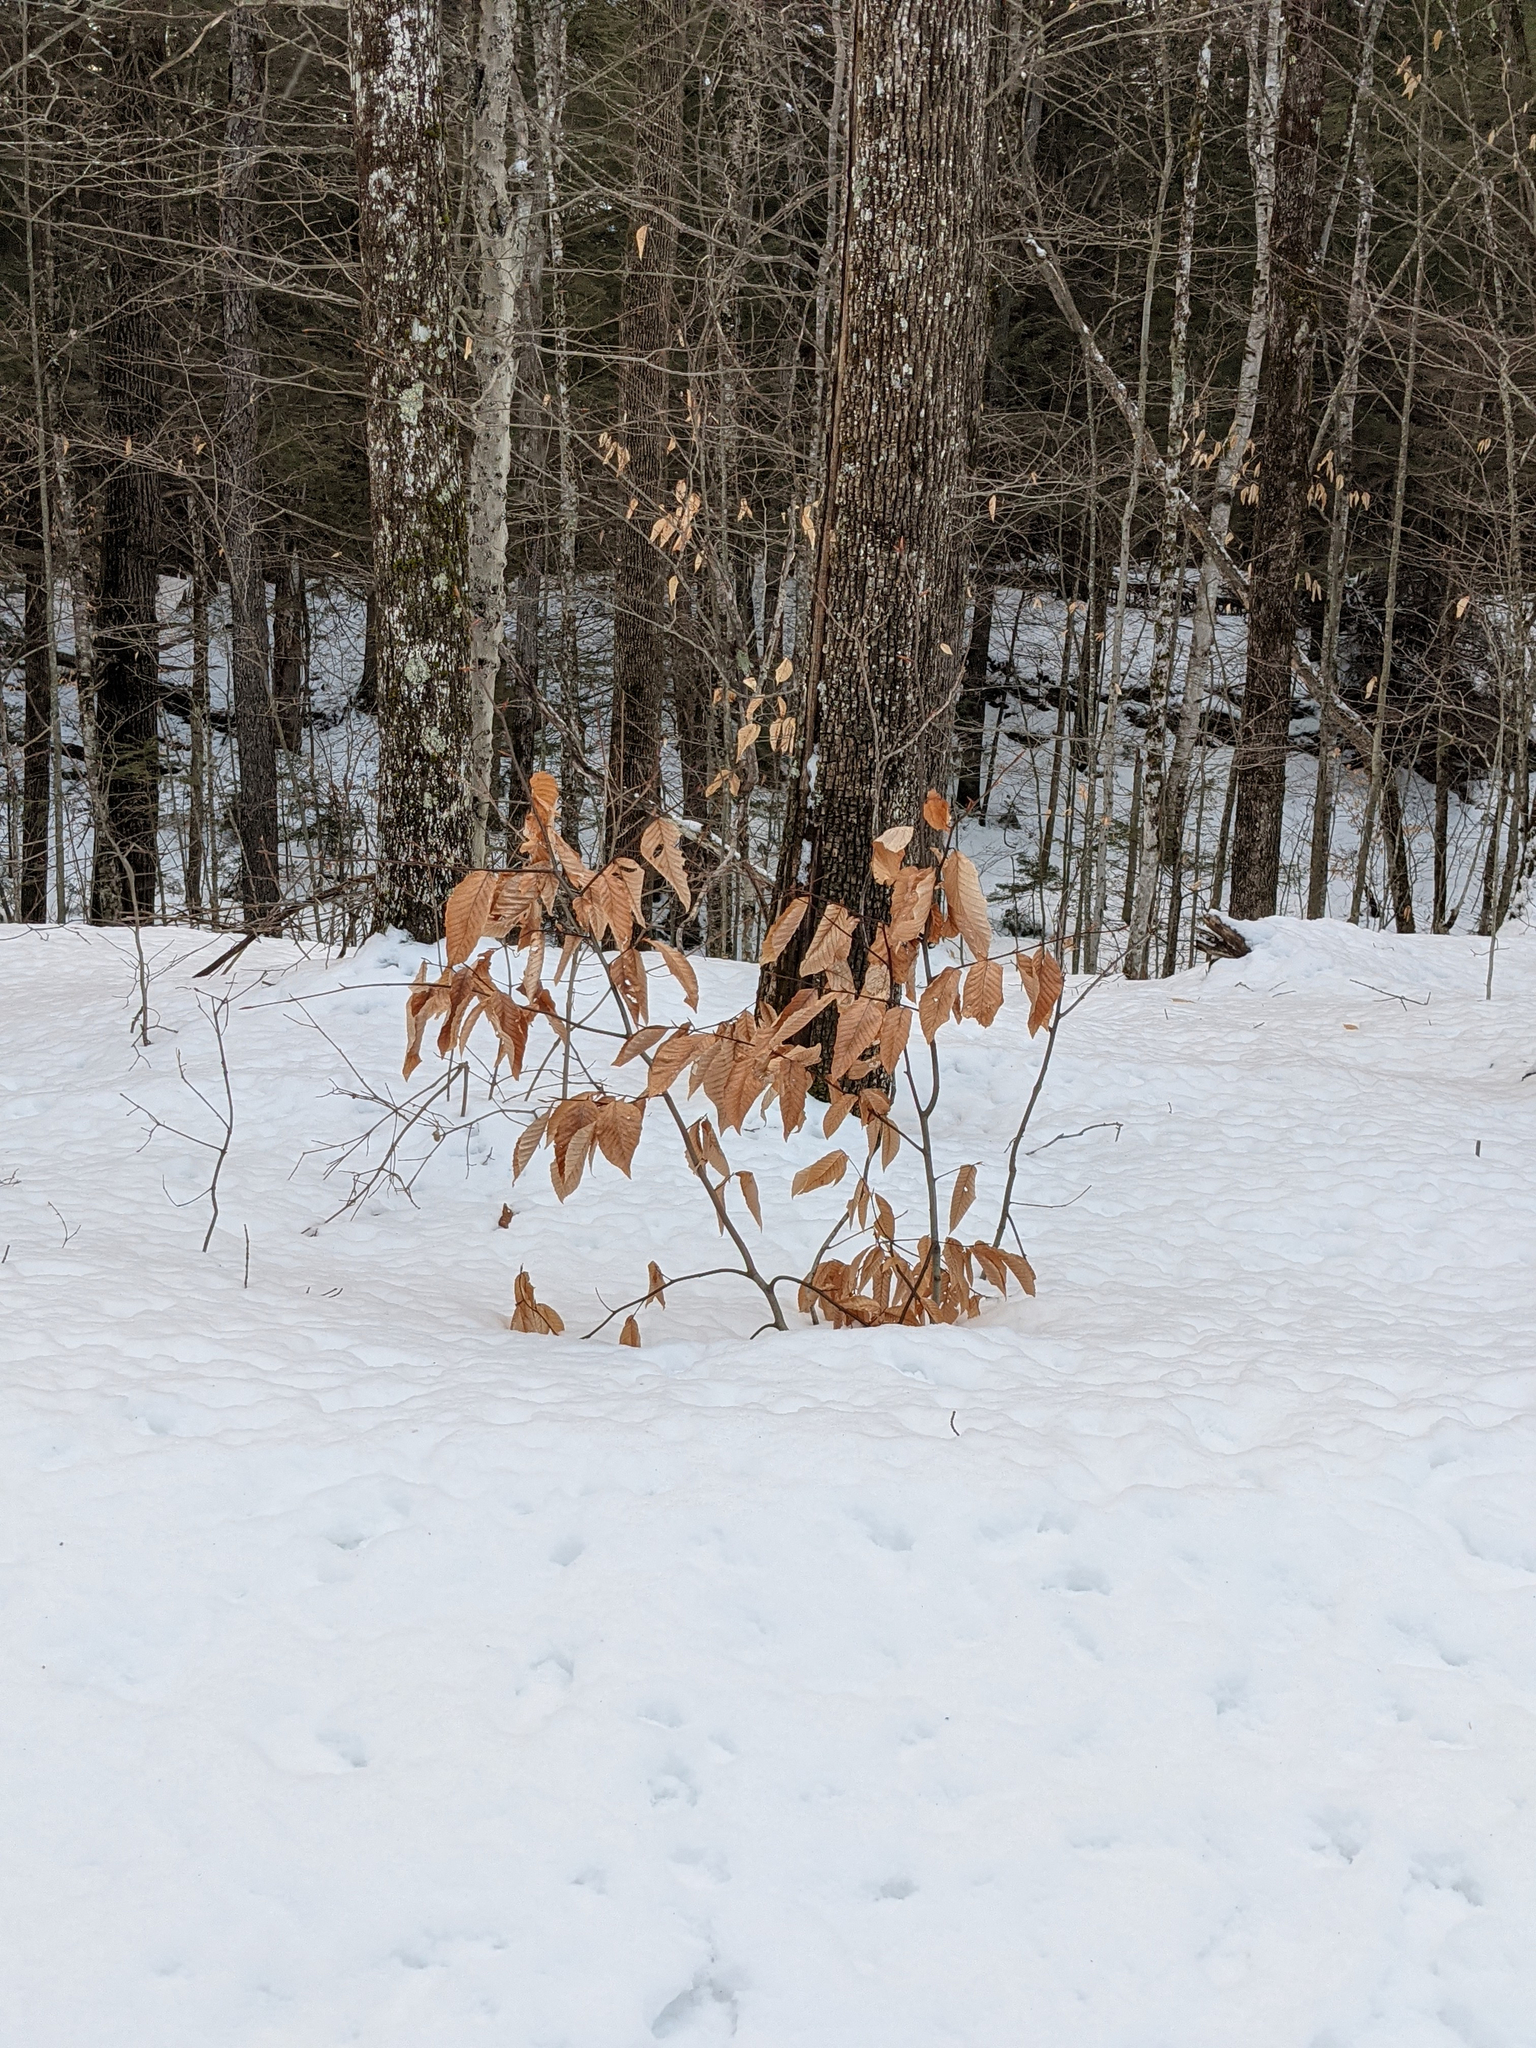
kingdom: Plantae
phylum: Tracheophyta
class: Magnoliopsida
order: Fagales
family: Fagaceae
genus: Fagus
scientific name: Fagus grandifolia
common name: American beech
